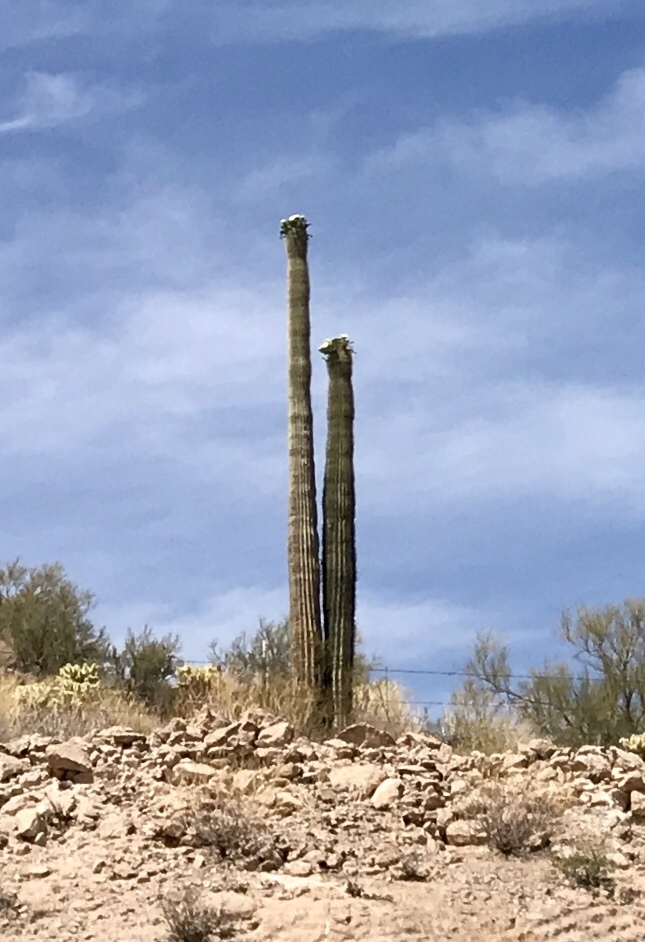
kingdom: Plantae
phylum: Tracheophyta
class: Magnoliopsida
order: Caryophyllales
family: Cactaceae
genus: Carnegiea
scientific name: Carnegiea gigantea
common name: Saguaro
